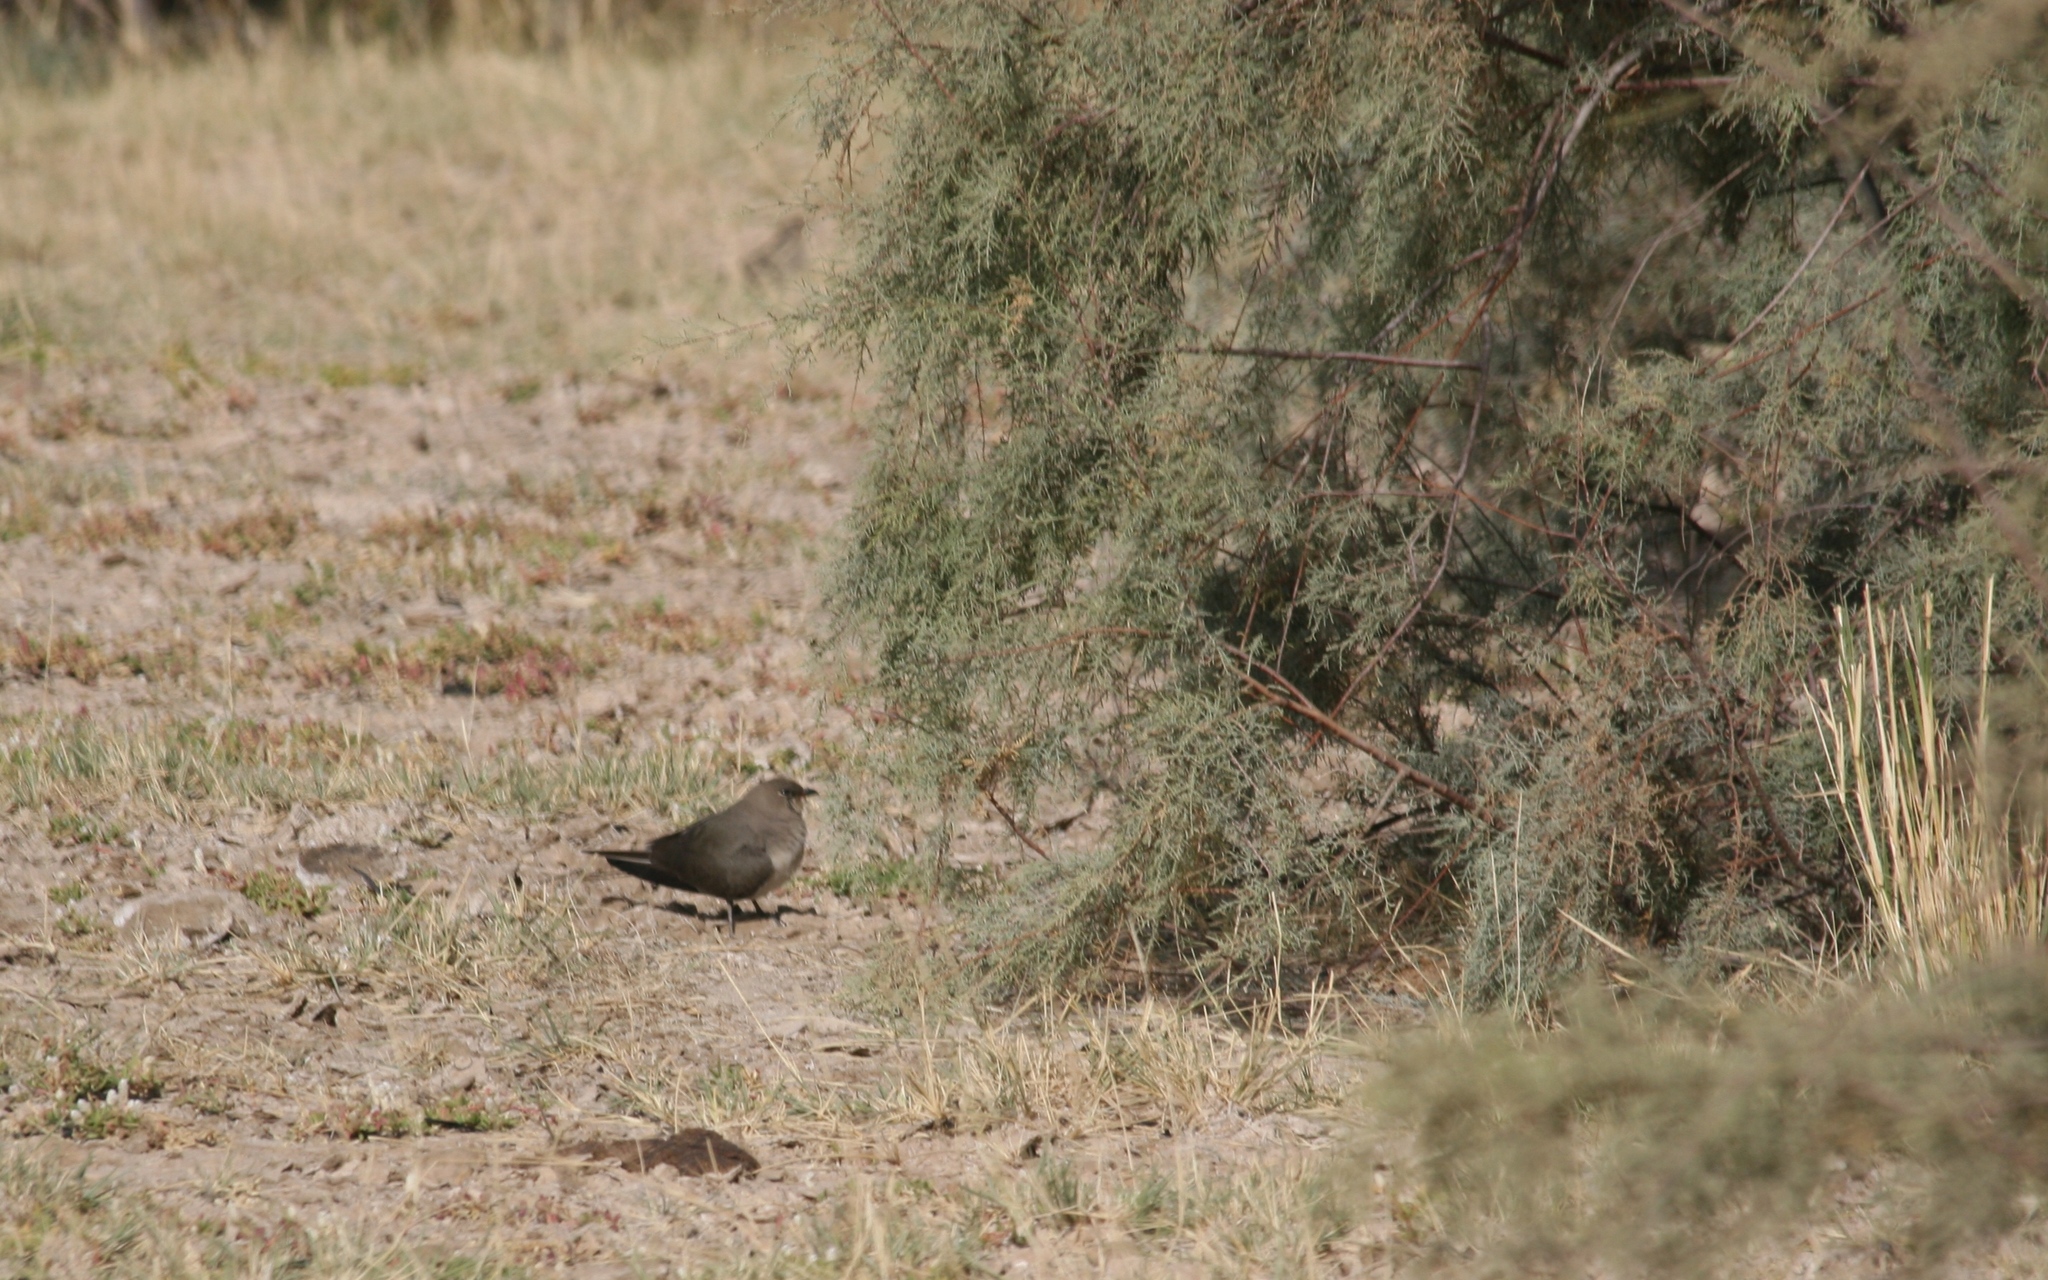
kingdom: Animalia
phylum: Chordata
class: Aves
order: Charadriiformes
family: Glareolidae
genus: Glareola
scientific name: Glareola pratincola
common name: Collared pratincole
